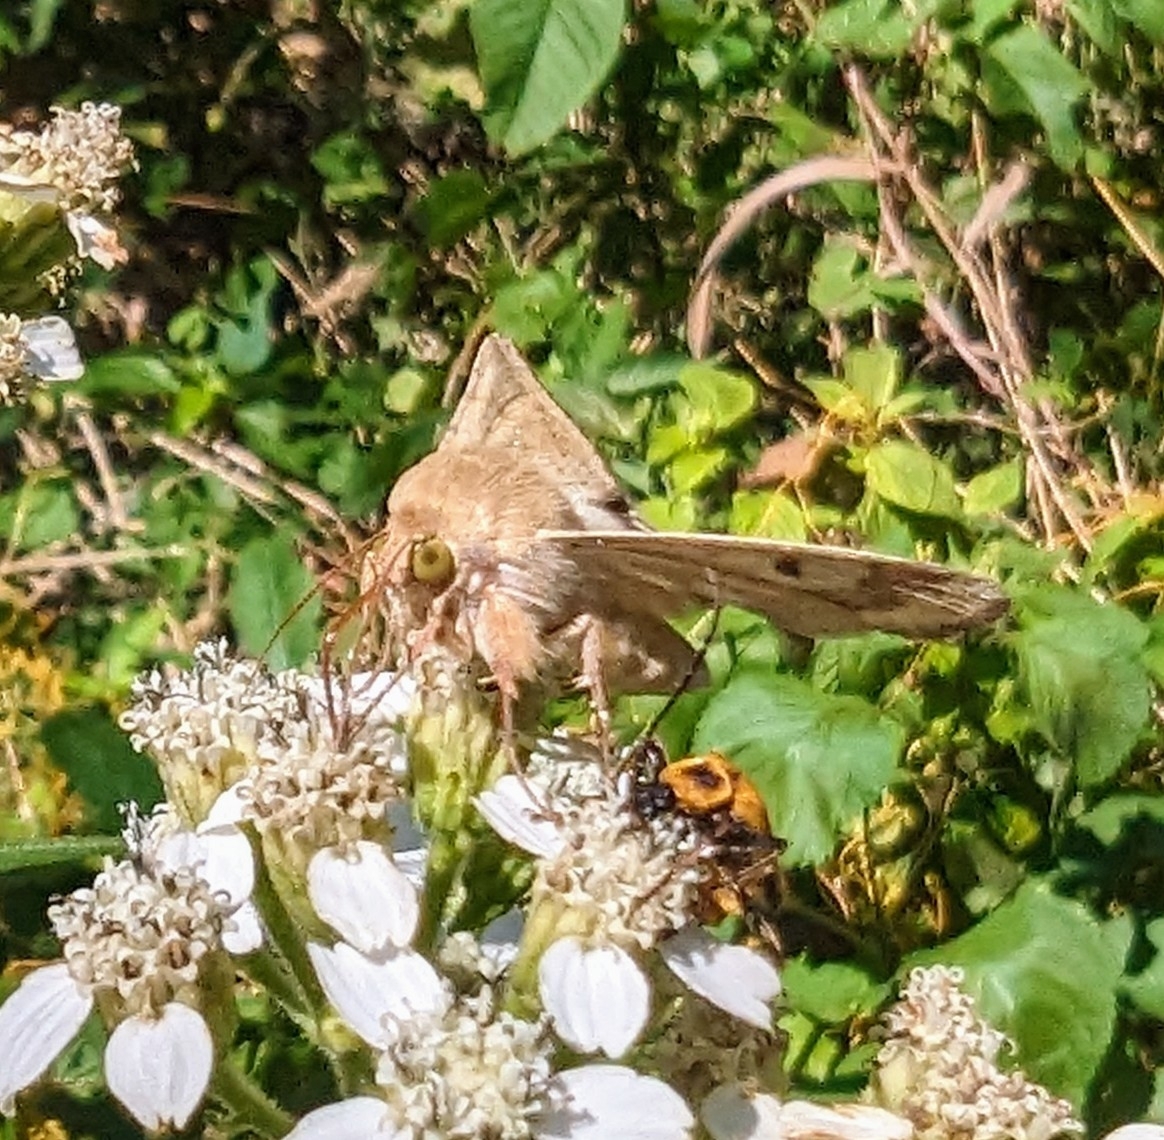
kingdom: Animalia
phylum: Arthropoda
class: Insecta
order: Lepidoptera
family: Noctuidae
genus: Helicoverpa
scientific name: Helicoverpa zea
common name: Bollworm
